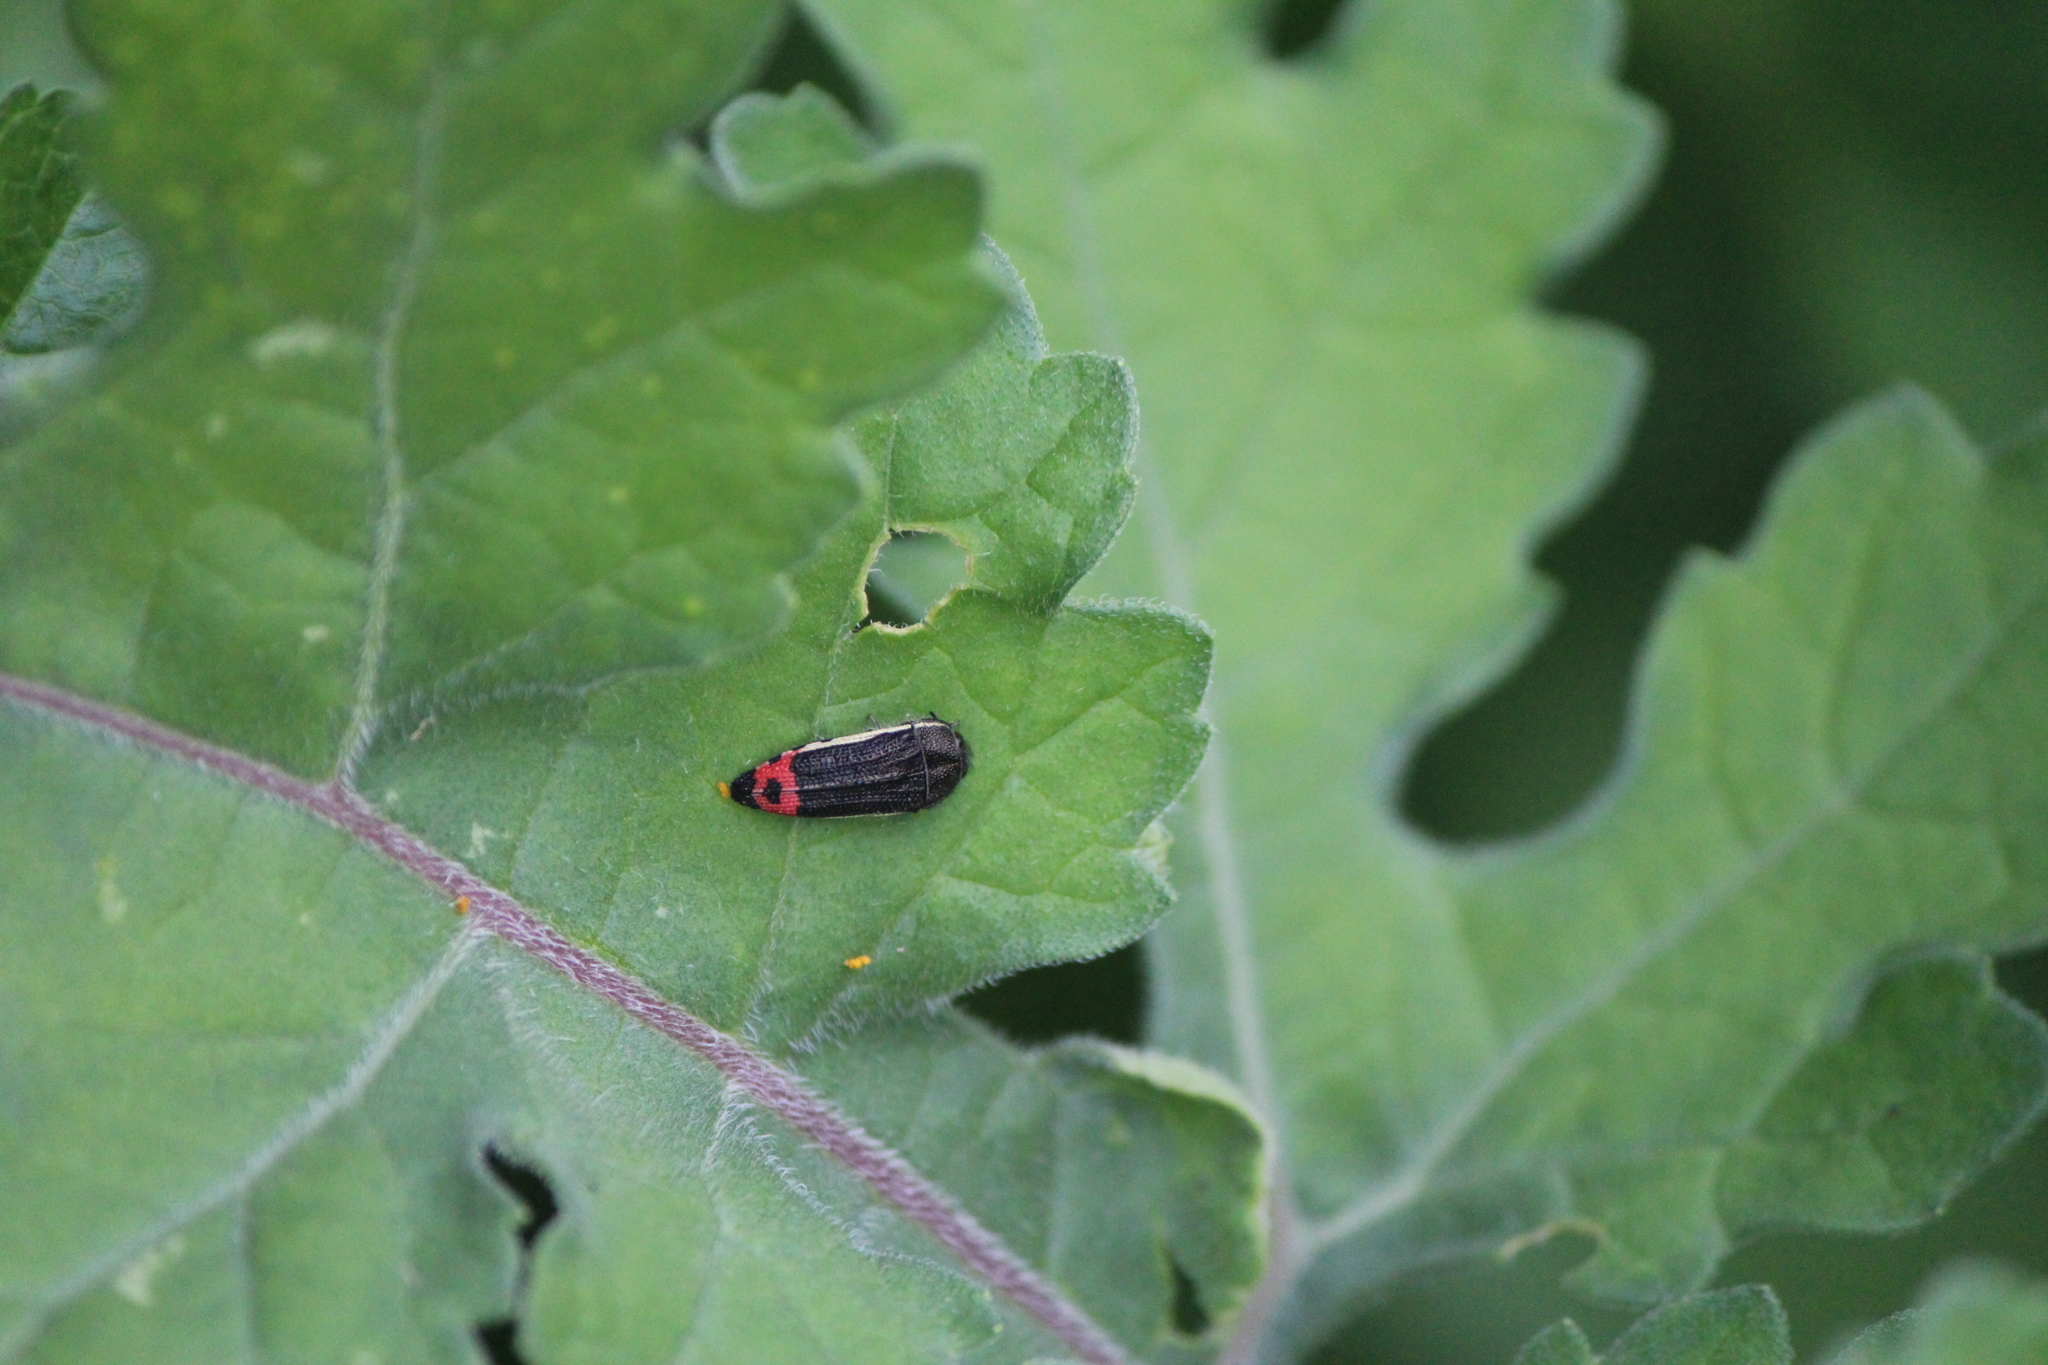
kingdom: Animalia
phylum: Arthropoda
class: Insecta
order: Coleoptera
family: Buprestidae
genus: Acmaeodera
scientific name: Acmaeodera flavomarginata
